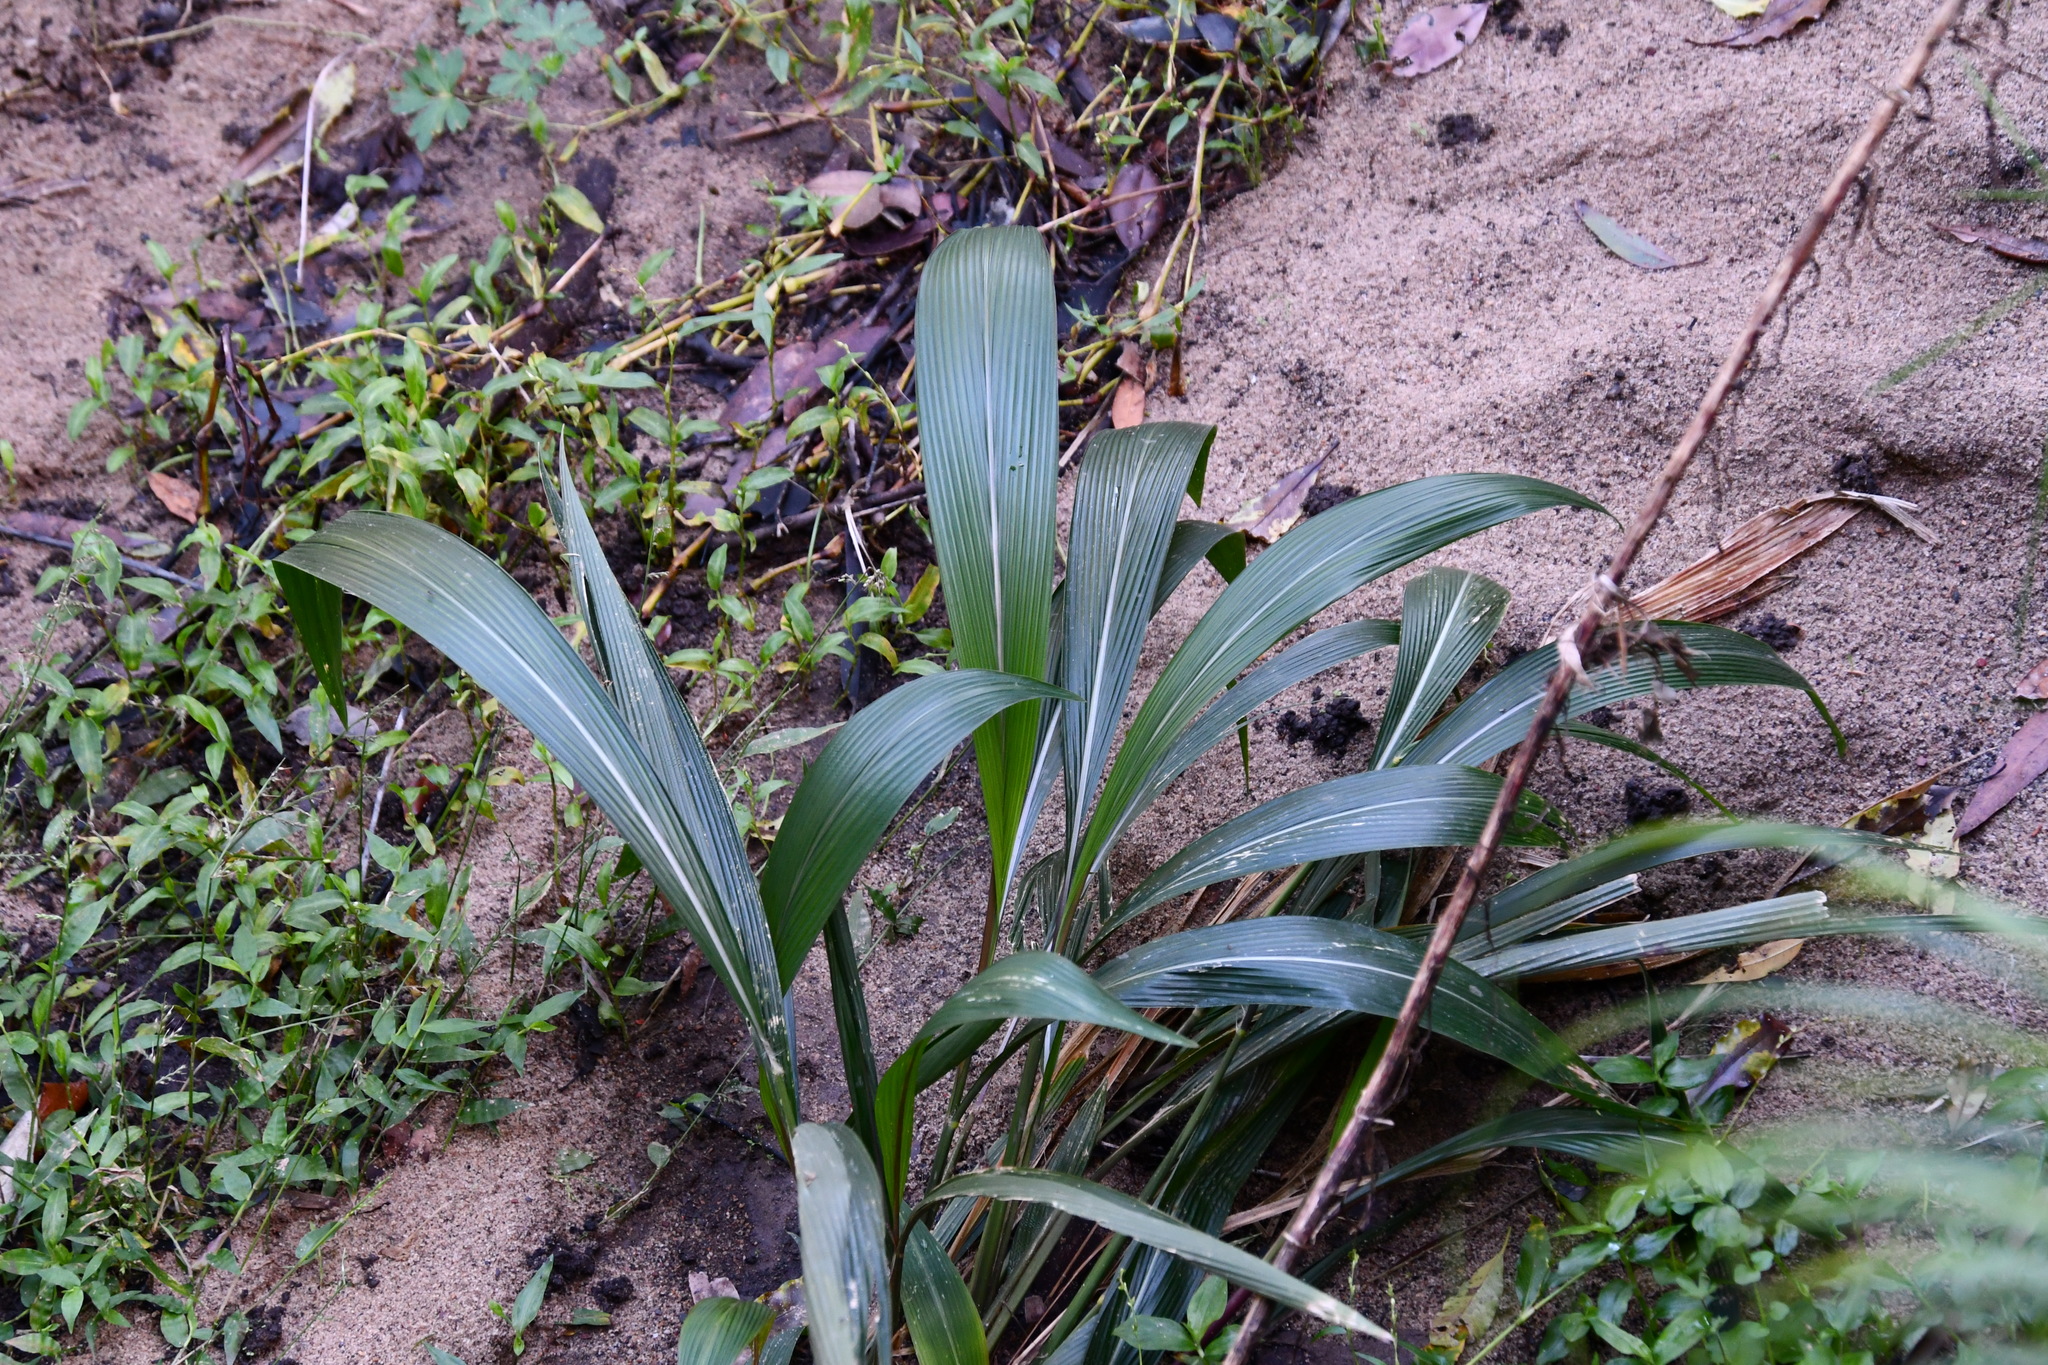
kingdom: Plantae
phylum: Tracheophyta
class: Liliopsida
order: Poales
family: Poaceae
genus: Setaria
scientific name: Setaria palmifolia
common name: Broadleaved bristlegrass
